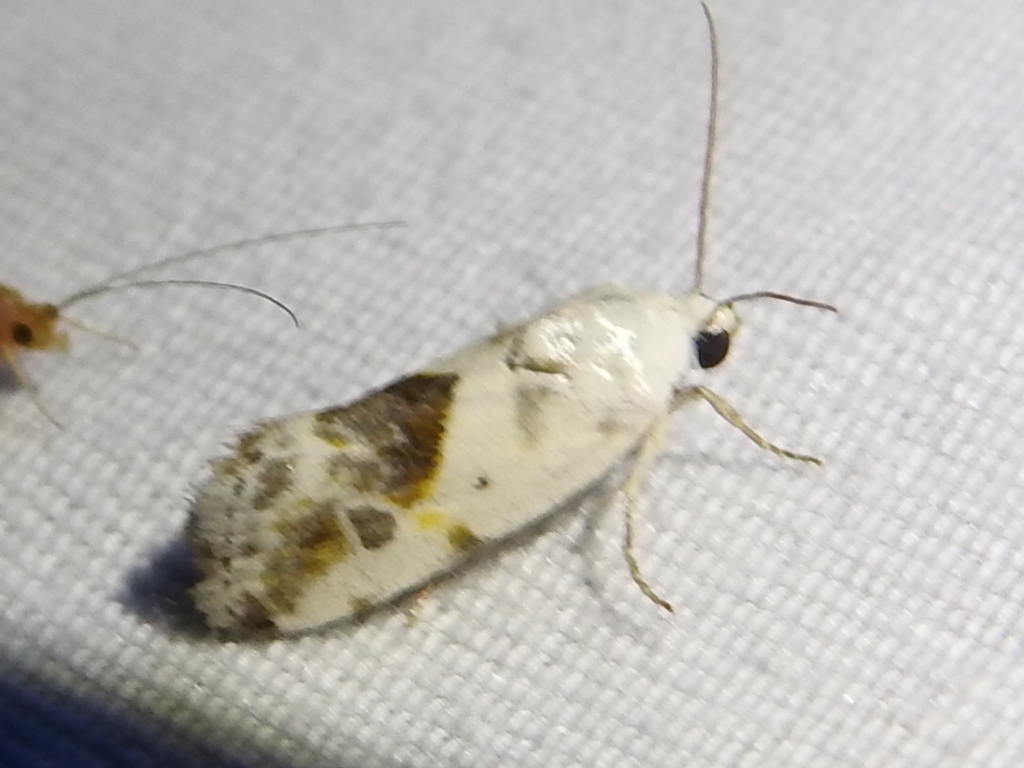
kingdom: Animalia
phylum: Arthropoda
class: Insecta
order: Lepidoptera
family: Noctuidae
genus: Acontia
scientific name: Acontia candefacta
